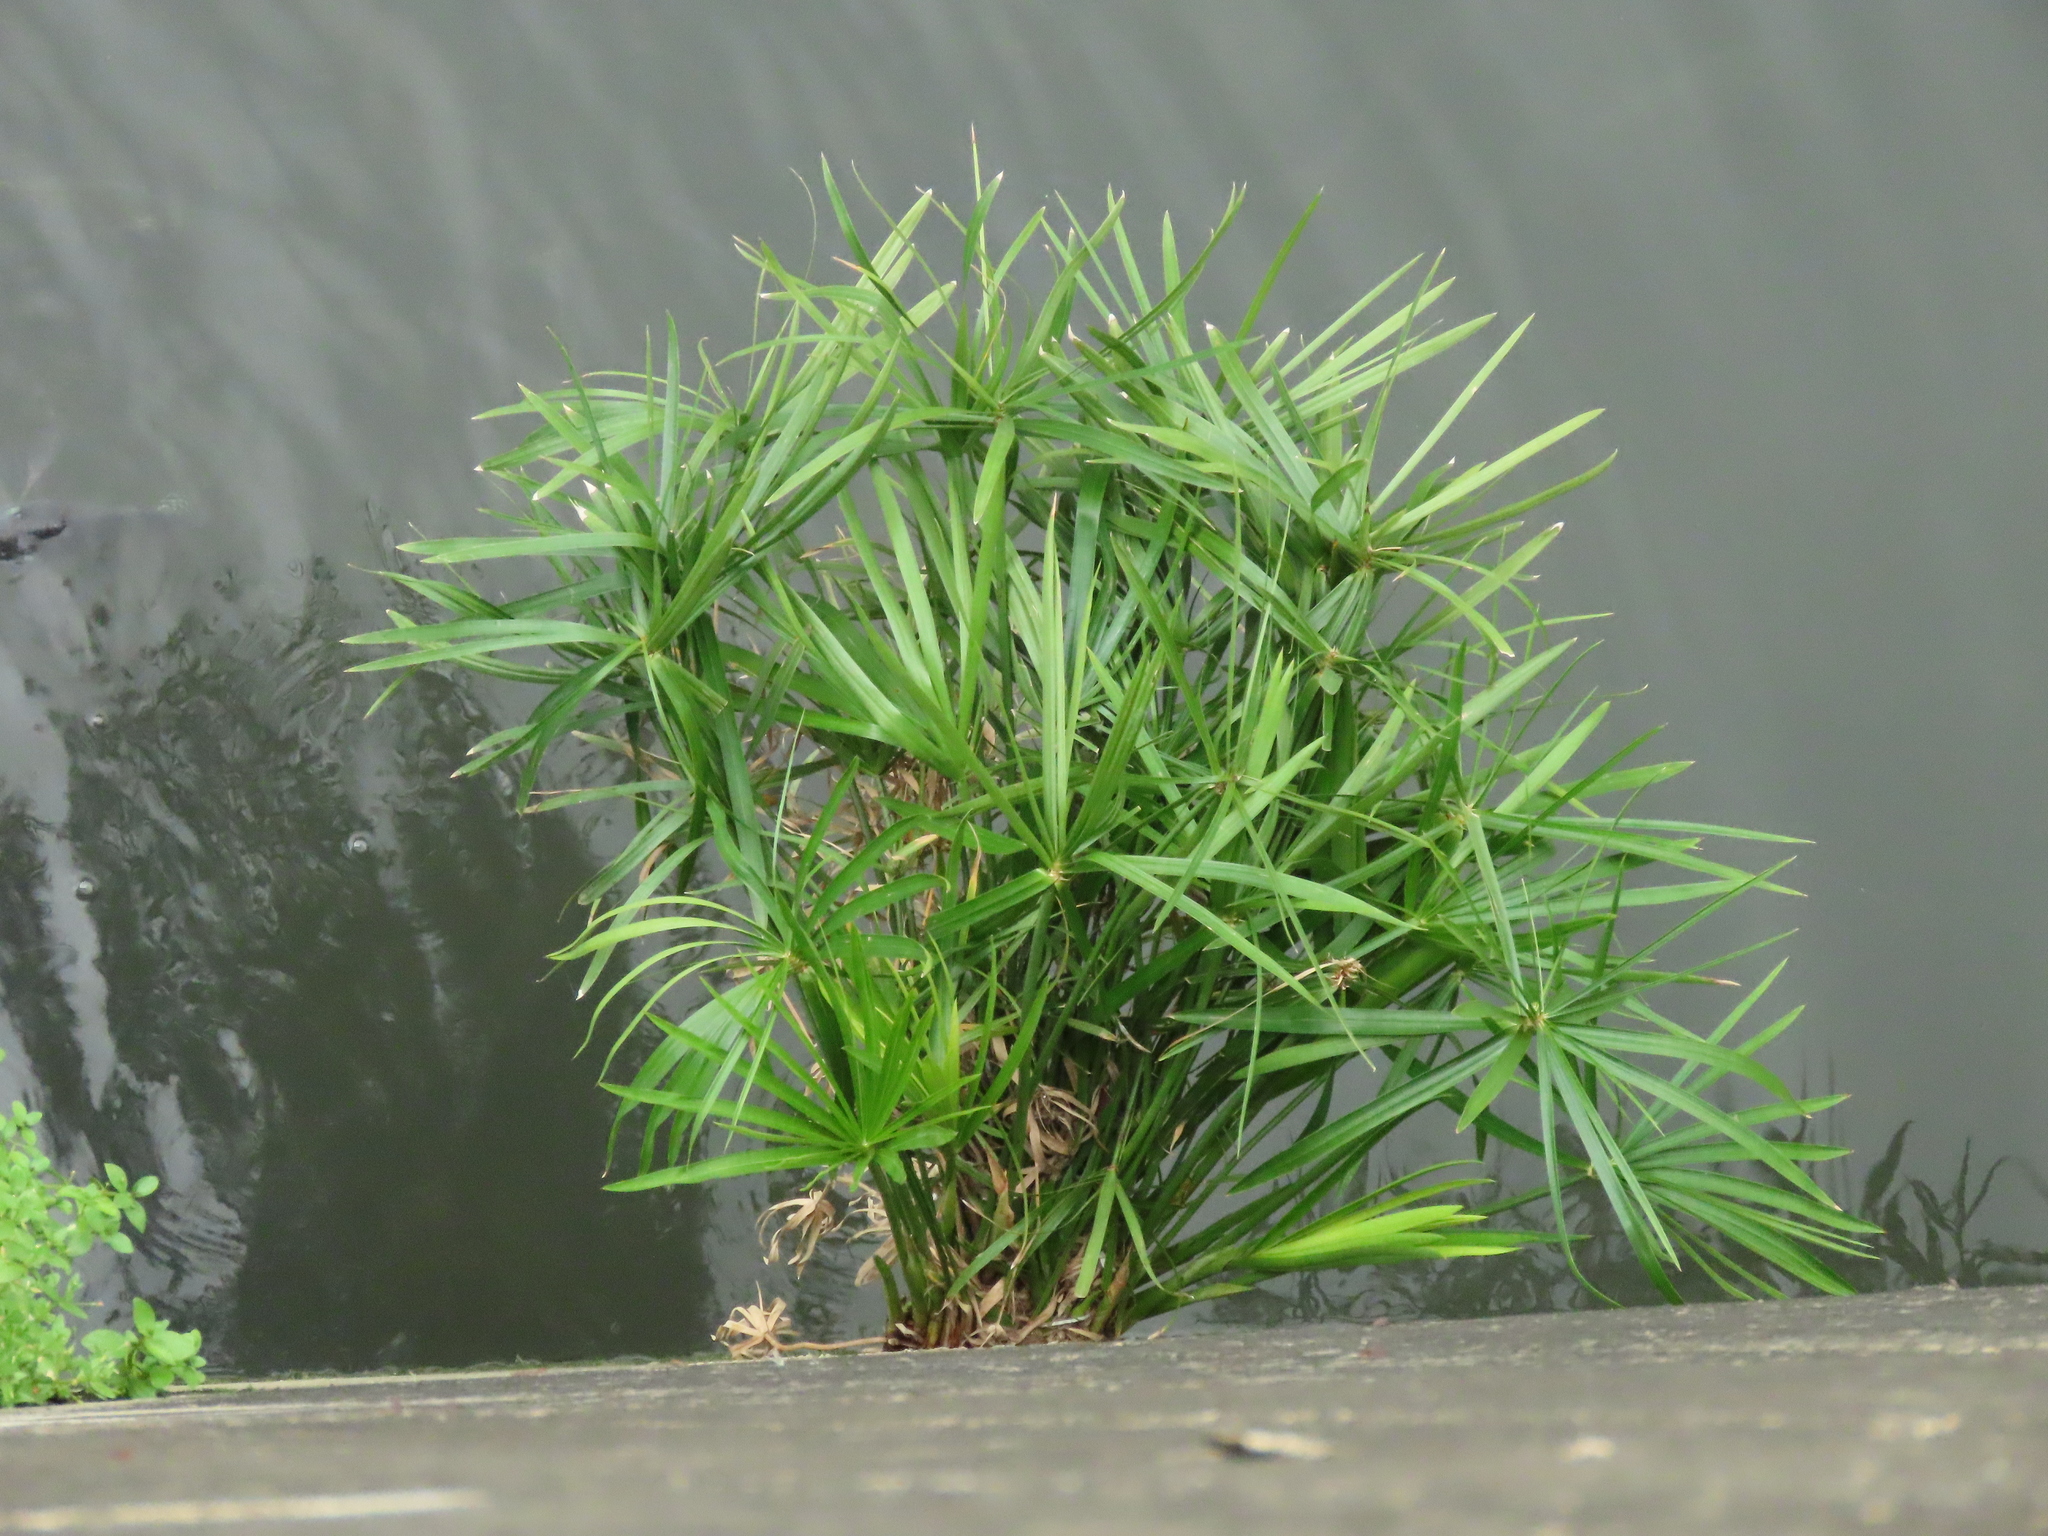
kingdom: Plantae
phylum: Tracheophyta
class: Liliopsida
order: Poales
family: Cyperaceae
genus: Cyperus
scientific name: Cyperus alternifolius
